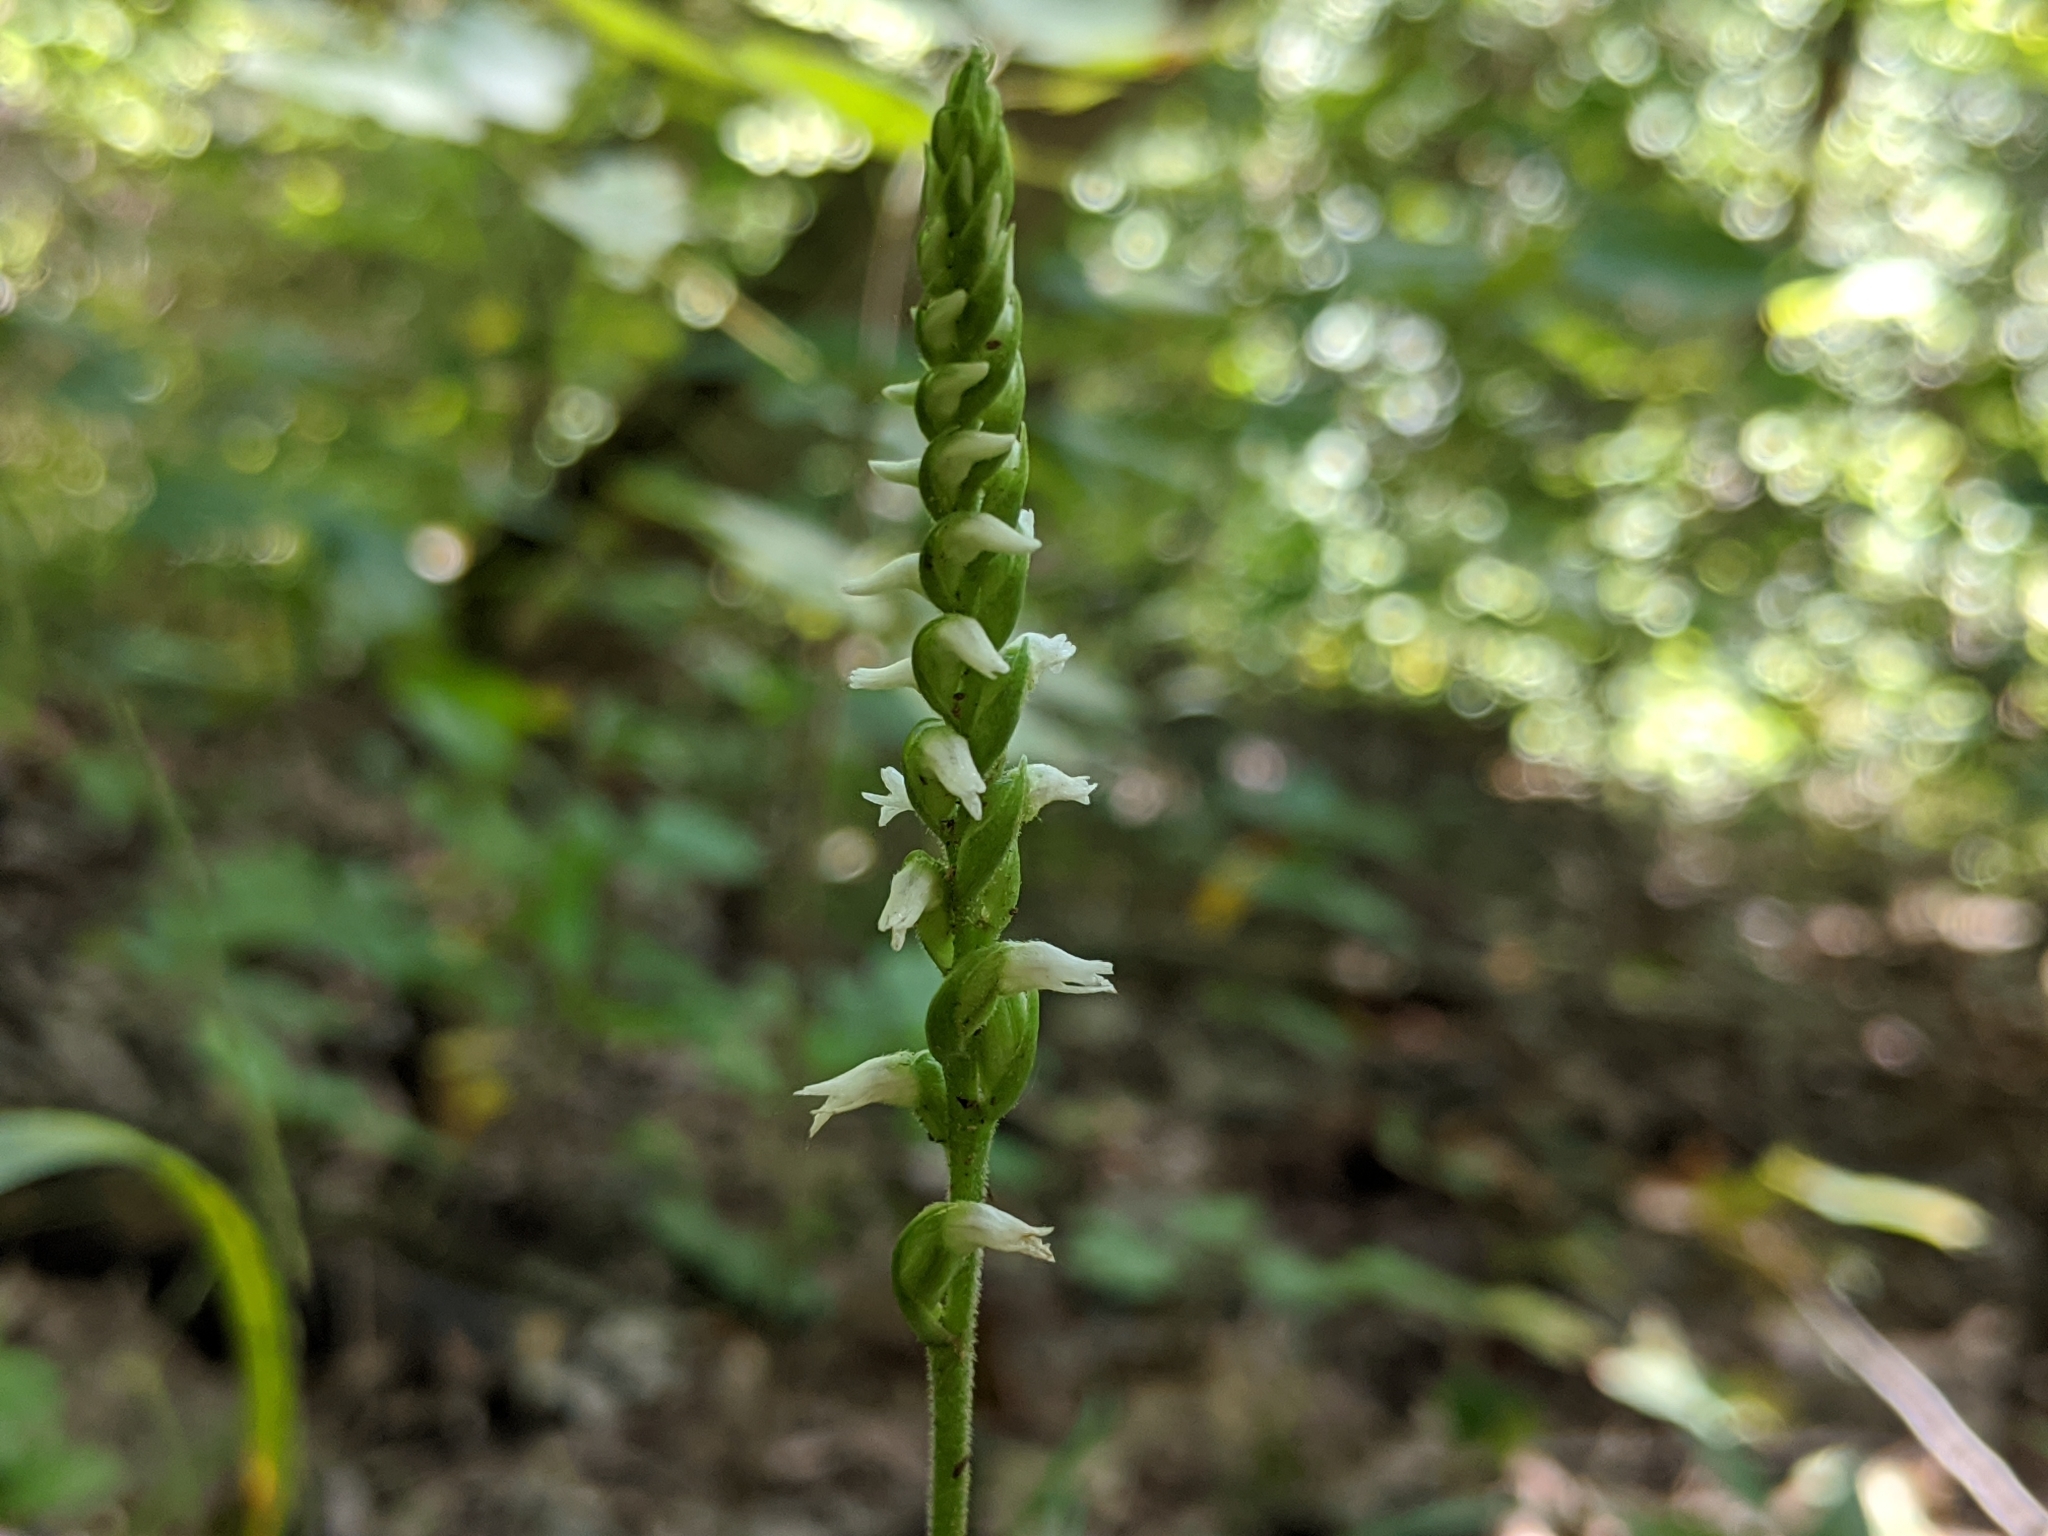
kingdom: Plantae
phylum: Tracheophyta
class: Liliopsida
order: Asparagales
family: Orchidaceae
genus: Spiranthes
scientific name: Spiranthes ovalis
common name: October ladies'-tresses
